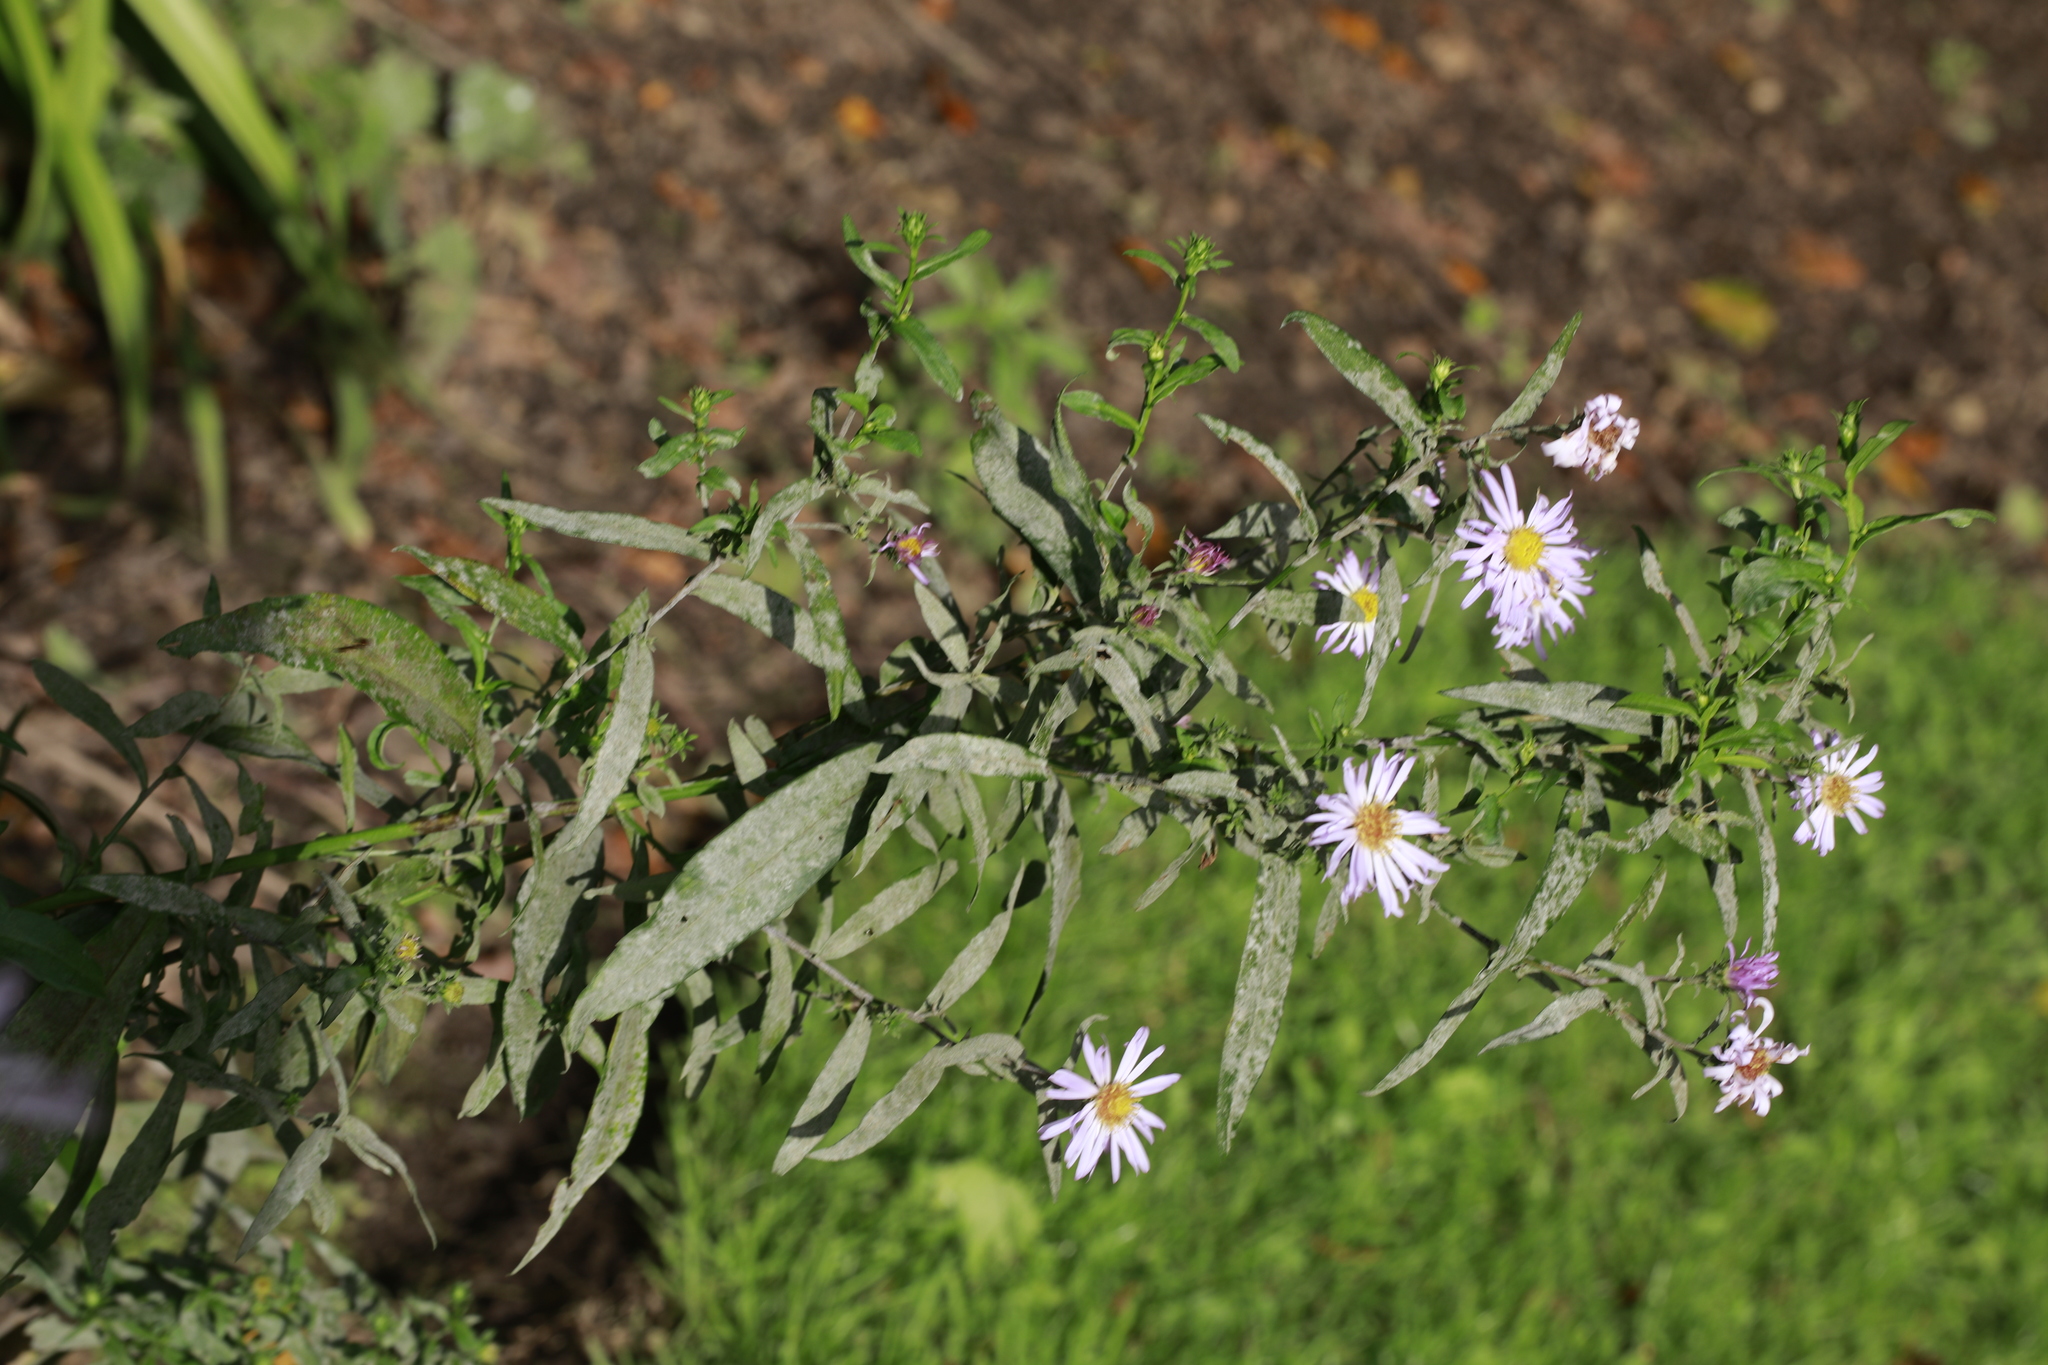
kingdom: Plantae
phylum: Tracheophyta
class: Magnoliopsida
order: Asterales
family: Asteraceae
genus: Symphyotrichum
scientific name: Symphyotrichum novi-belgii
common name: Michaelmas daisy
